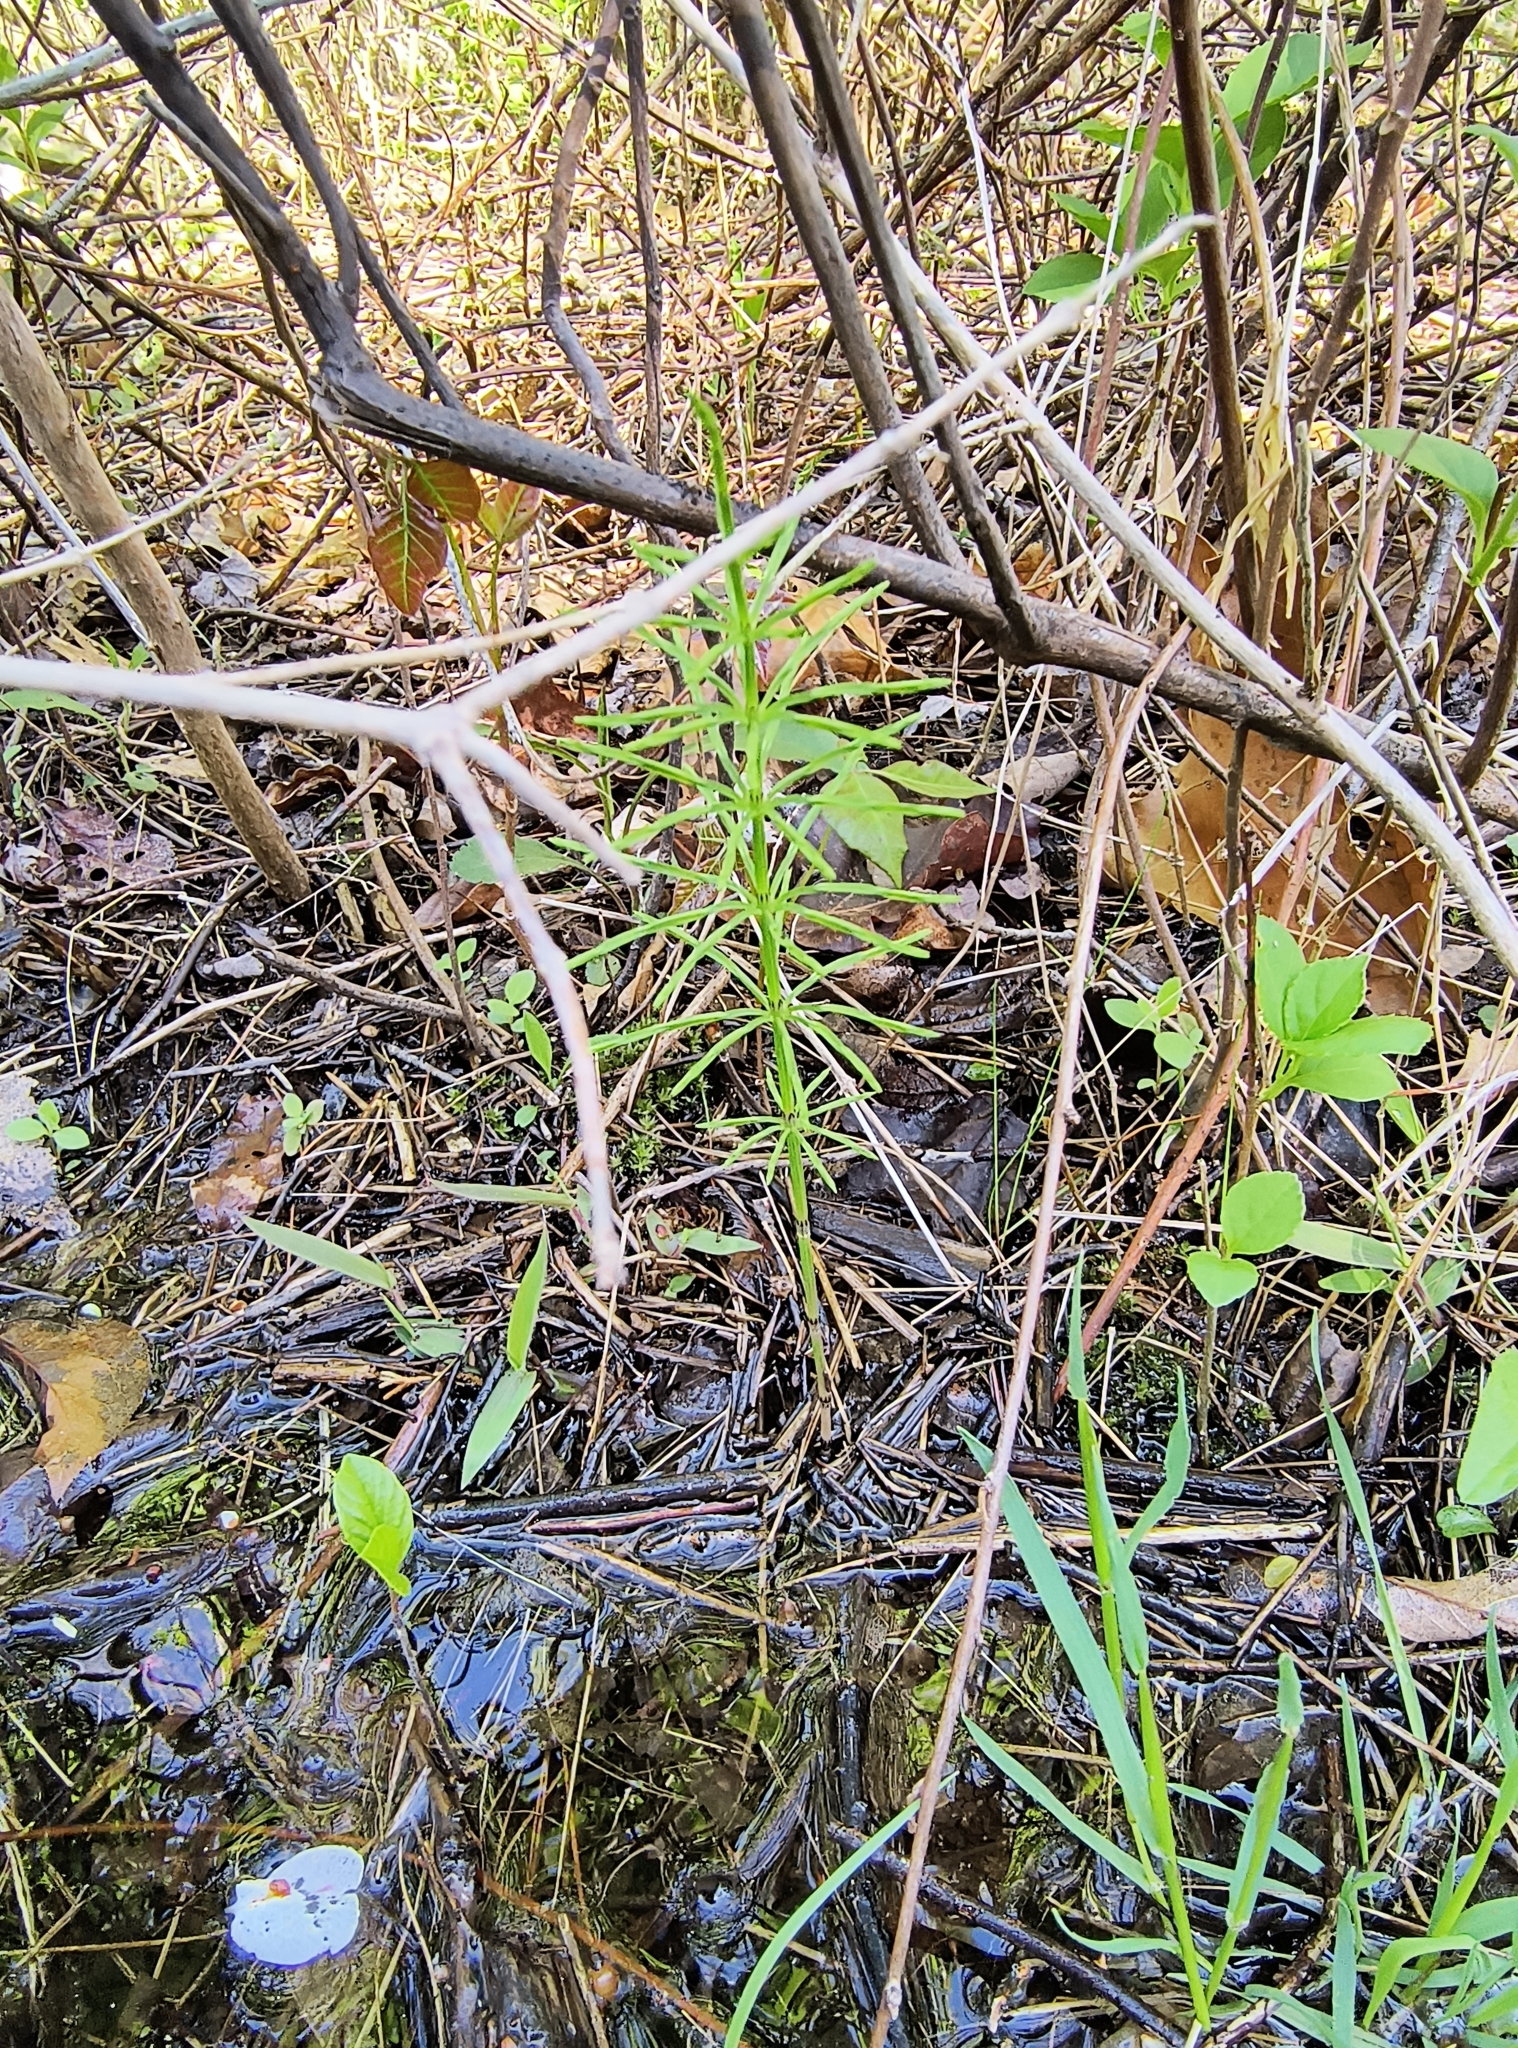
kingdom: Plantae
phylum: Tracheophyta
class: Polypodiopsida
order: Equisetales
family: Equisetaceae
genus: Equisetum
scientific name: Equisetum arvense
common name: Field horsetail
